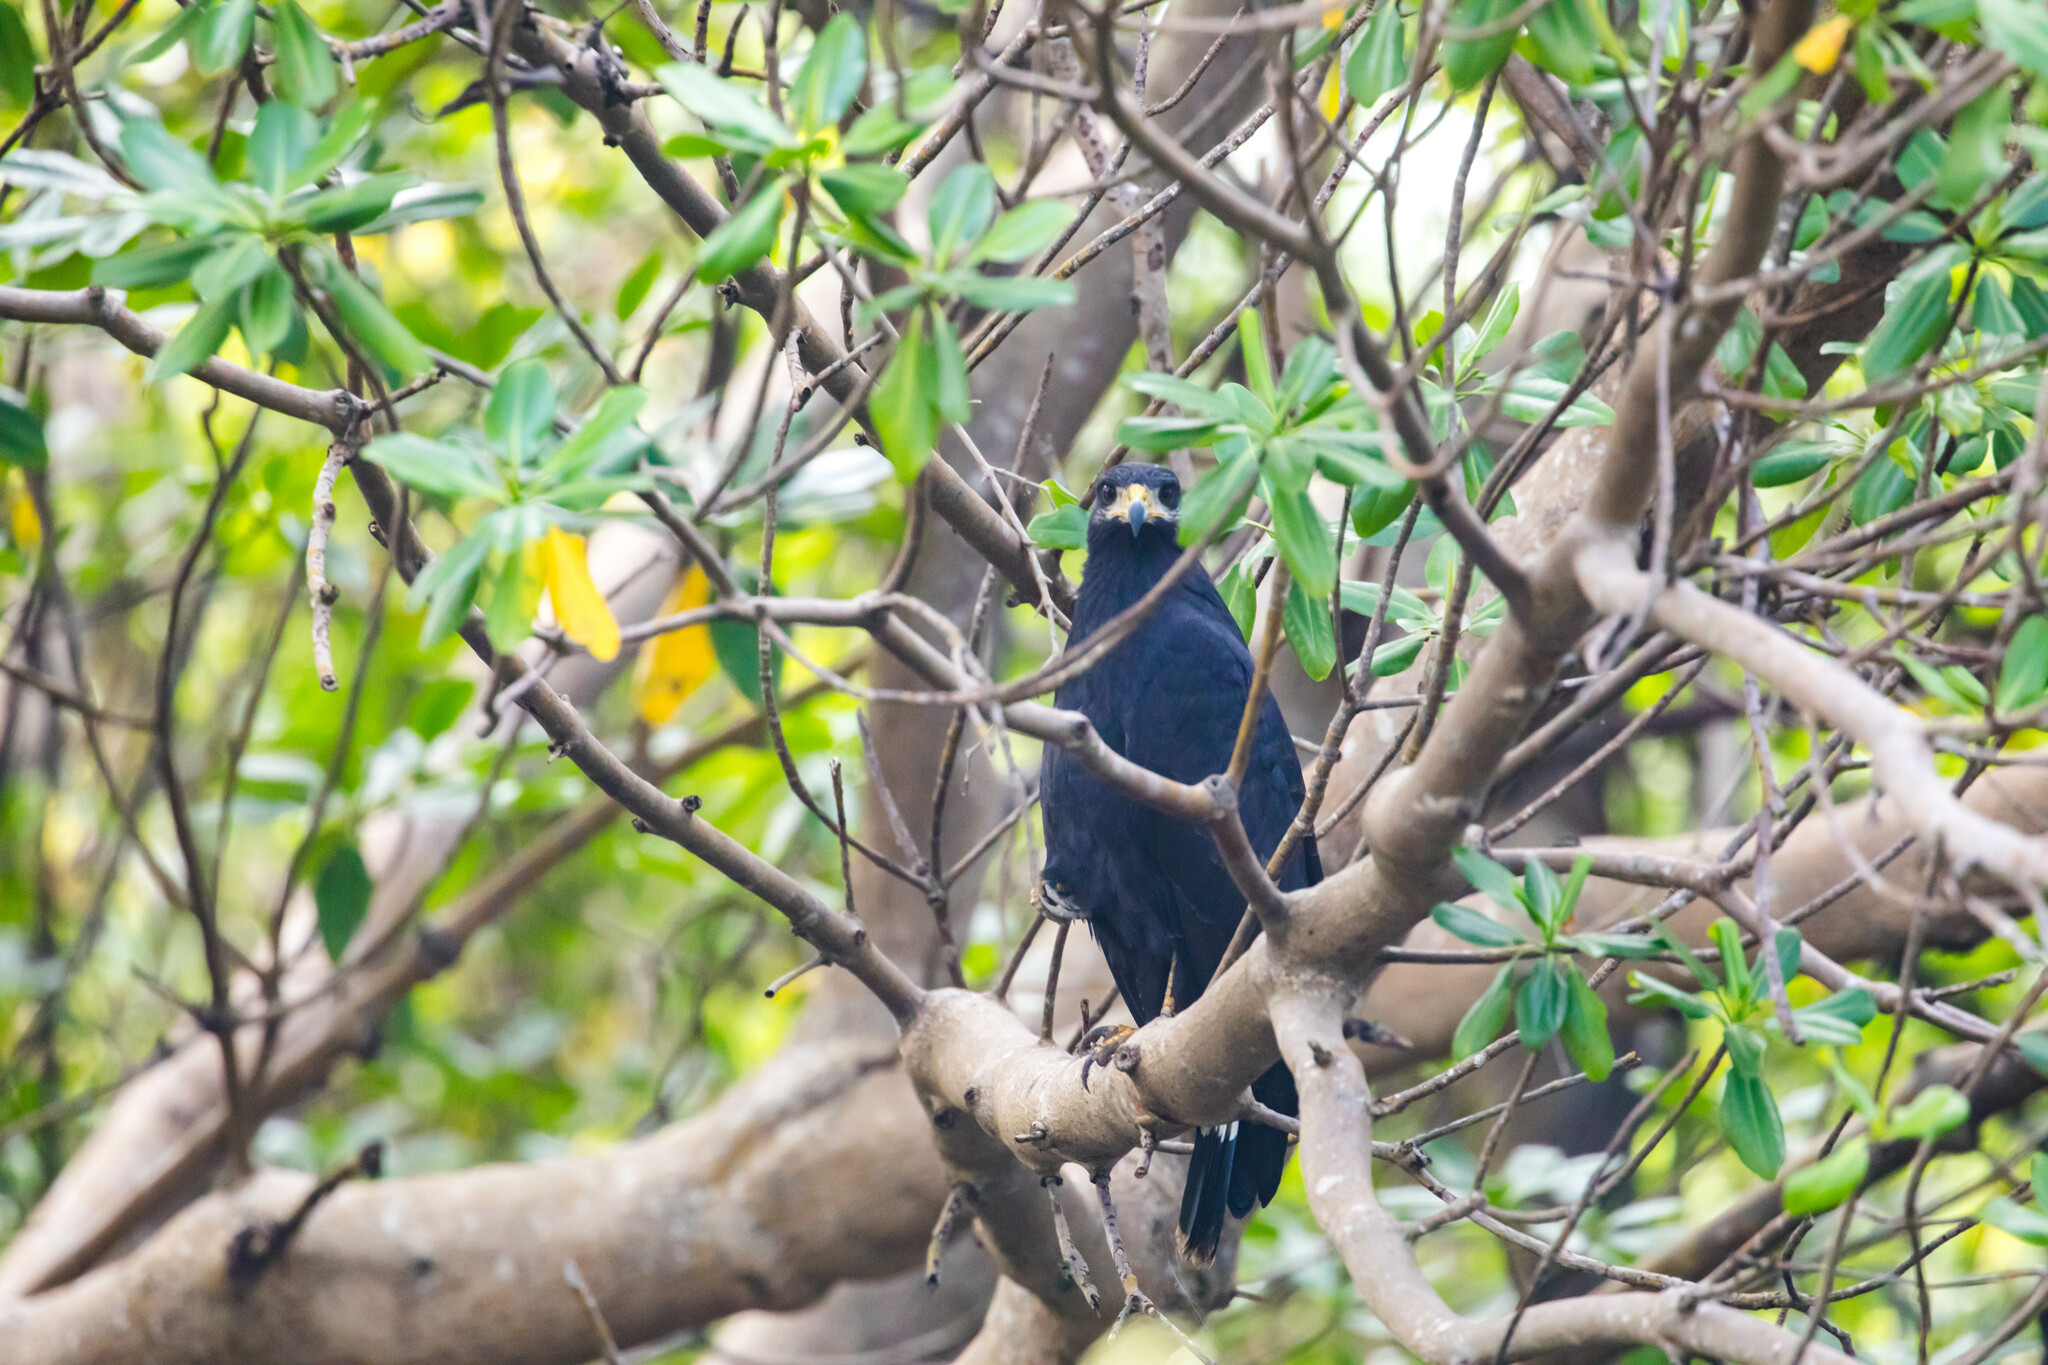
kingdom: Animalia
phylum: Chordata
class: Aves
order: Accipitriformes
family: Accipitridae
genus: Buteogallus
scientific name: Buteogallus anthracinus
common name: Common black hawk
